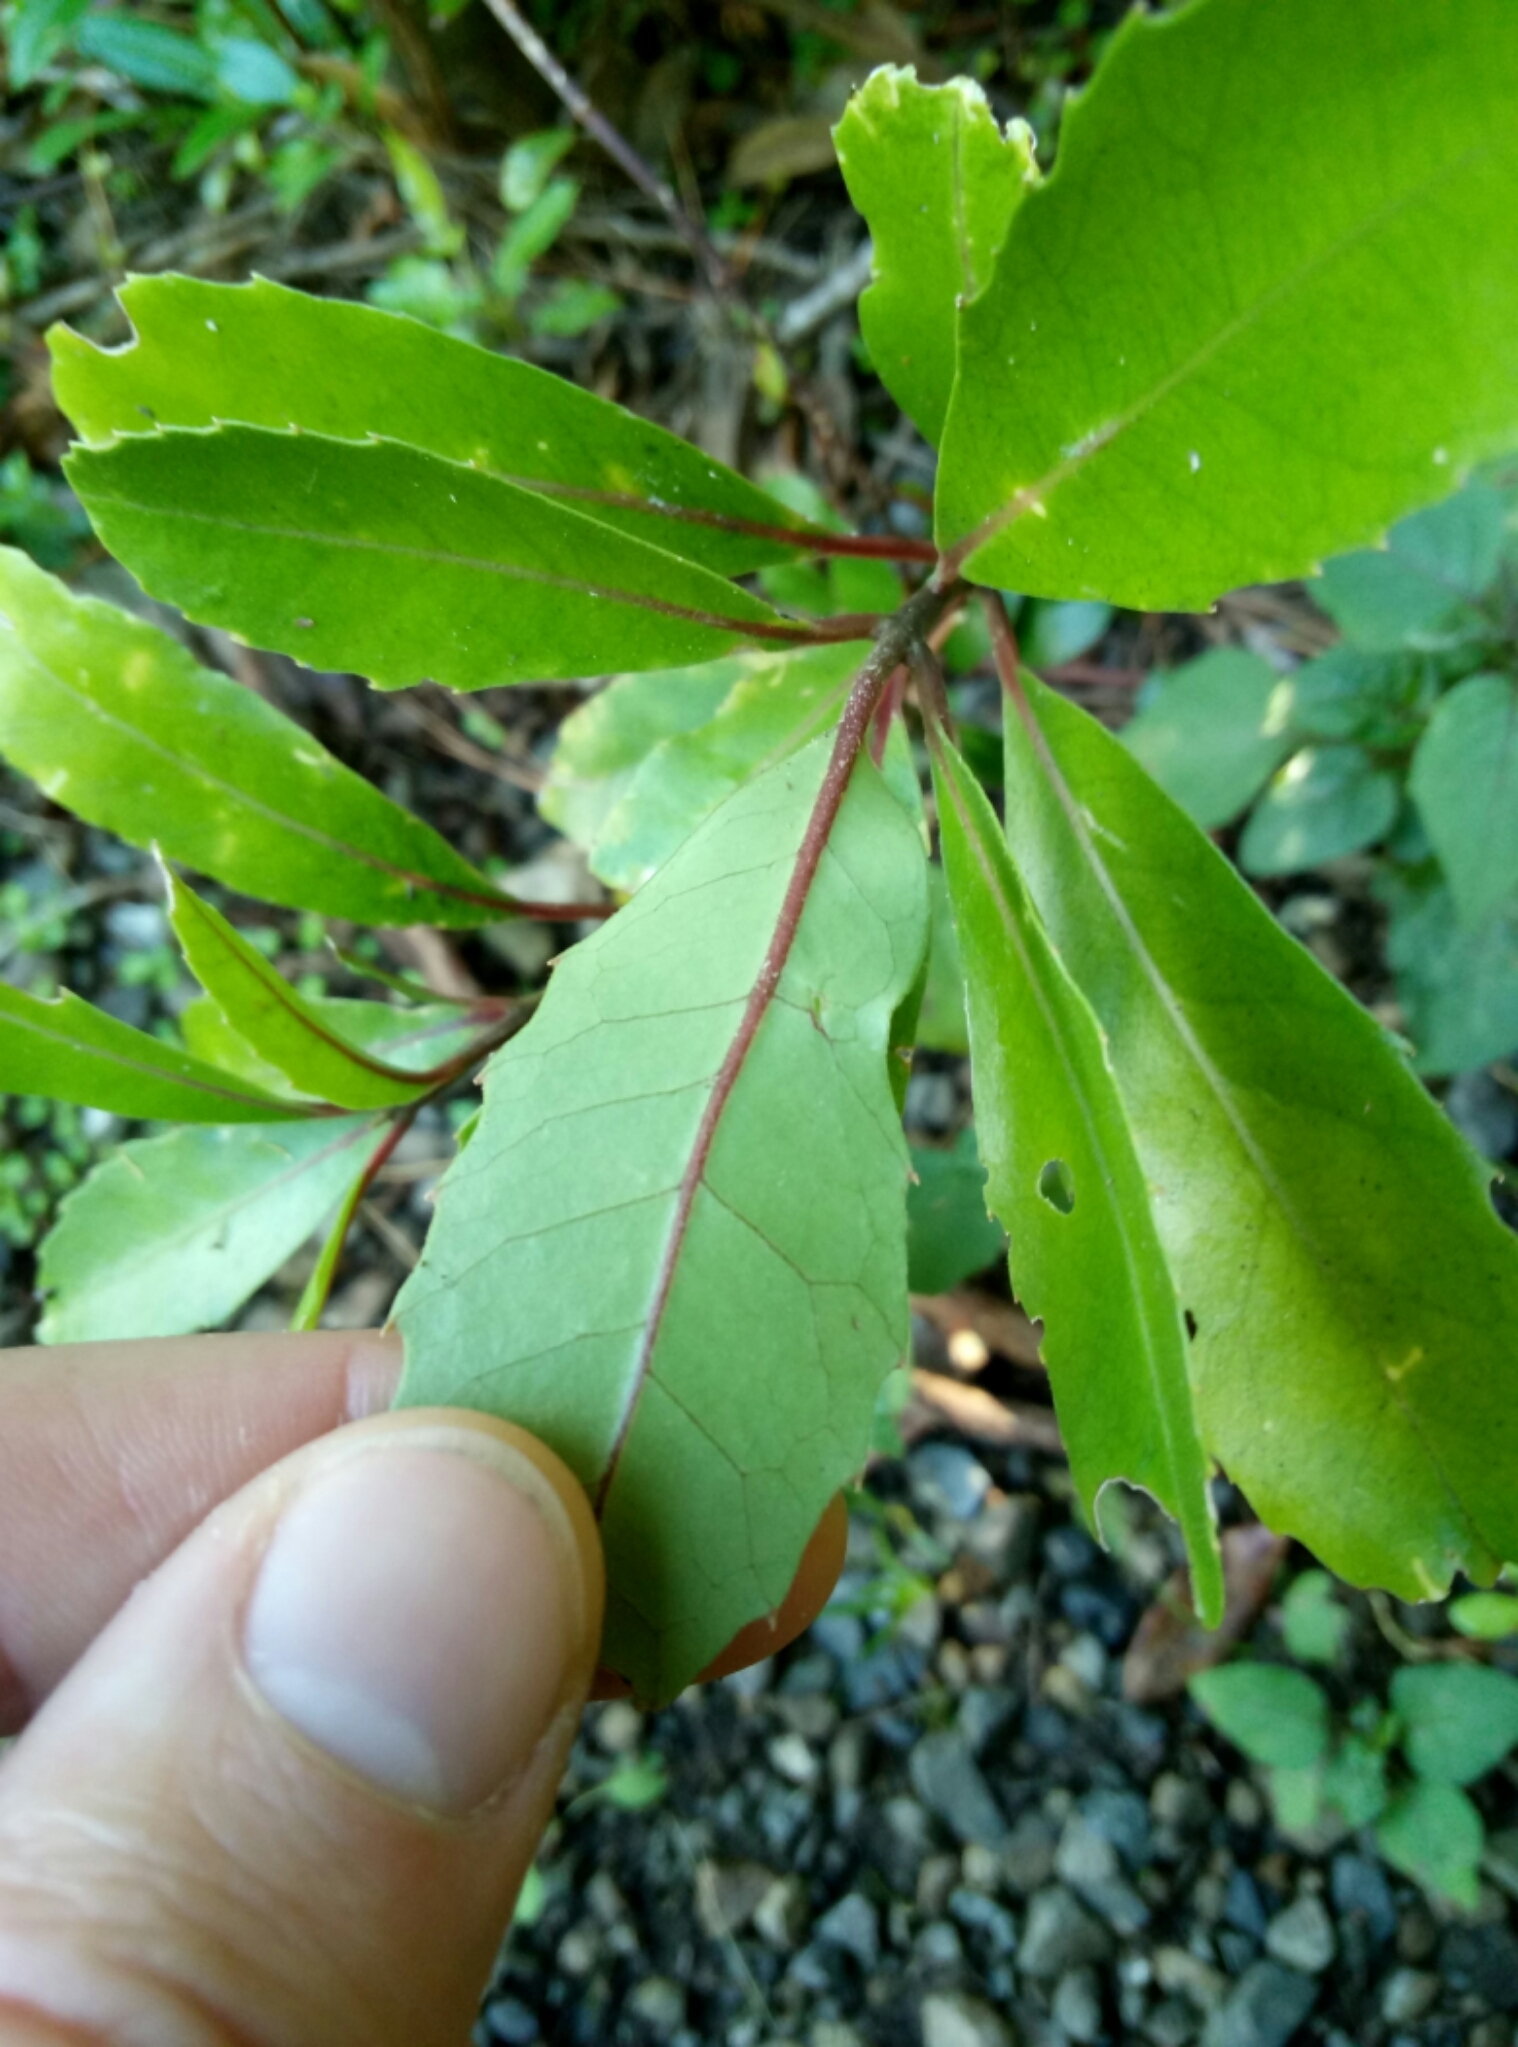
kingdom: Plantae
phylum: Tracheophyta
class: Magnoliopsida
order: Laurales
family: Monimiaceae
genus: Hedycarya
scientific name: Hedycarya arborea
